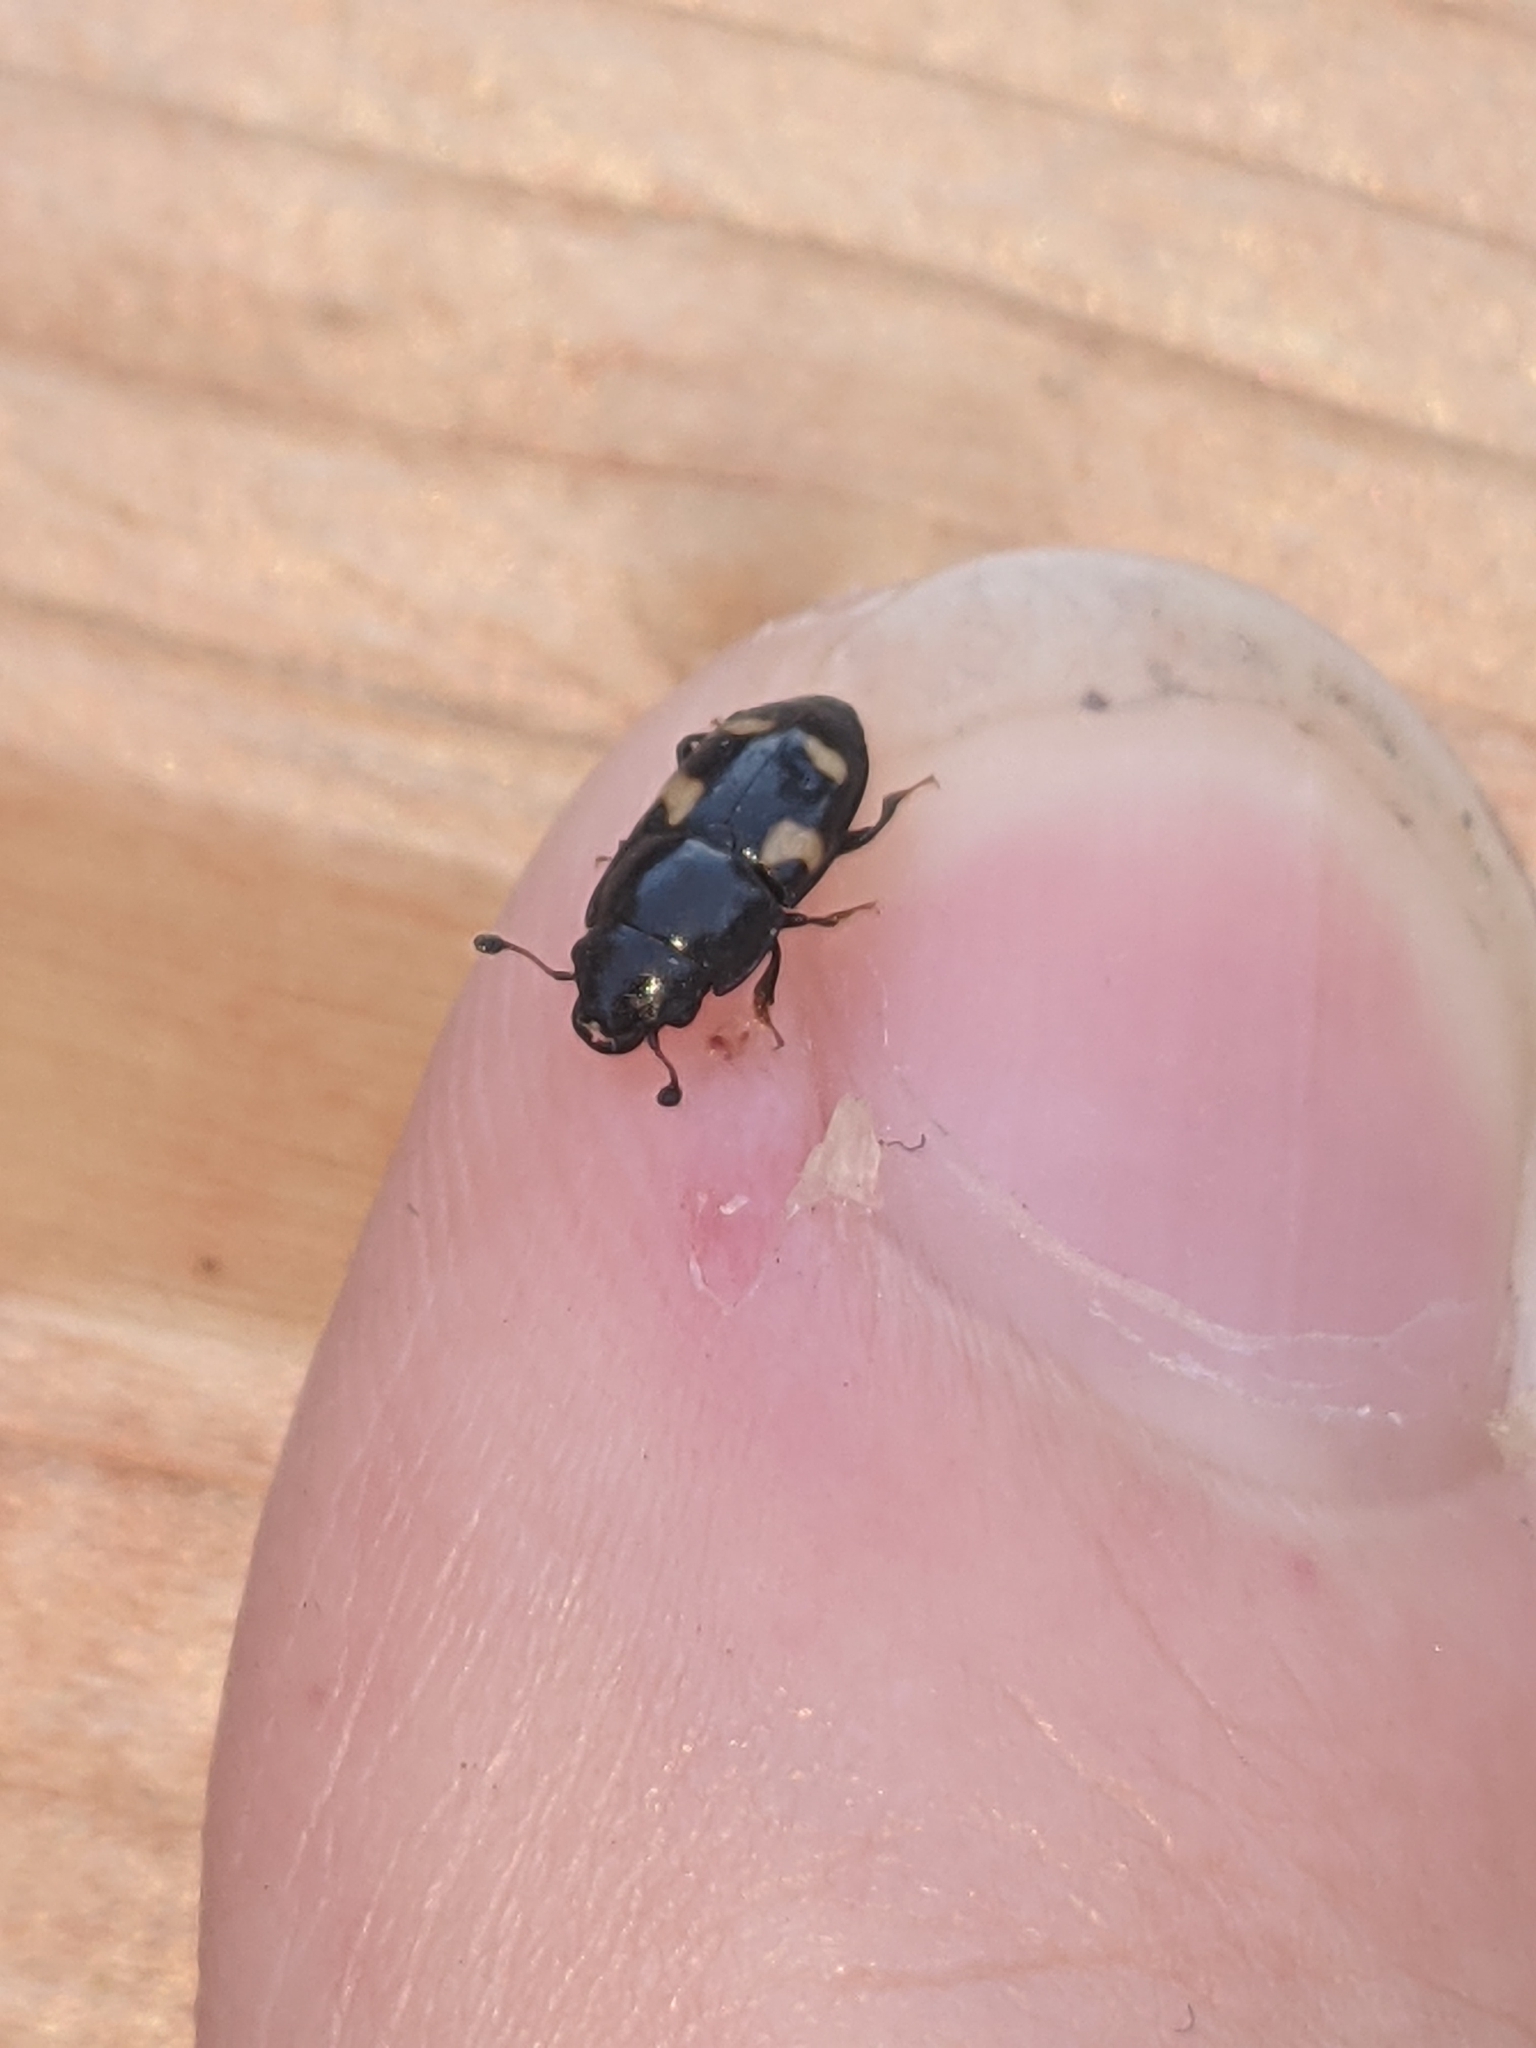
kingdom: Animalia
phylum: Arthropoda
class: Insecta
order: Coleoptera
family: Nitidulidae
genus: Glischrochilus
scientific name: Glischrochilus quadrisignatus
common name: Picnic beetle
